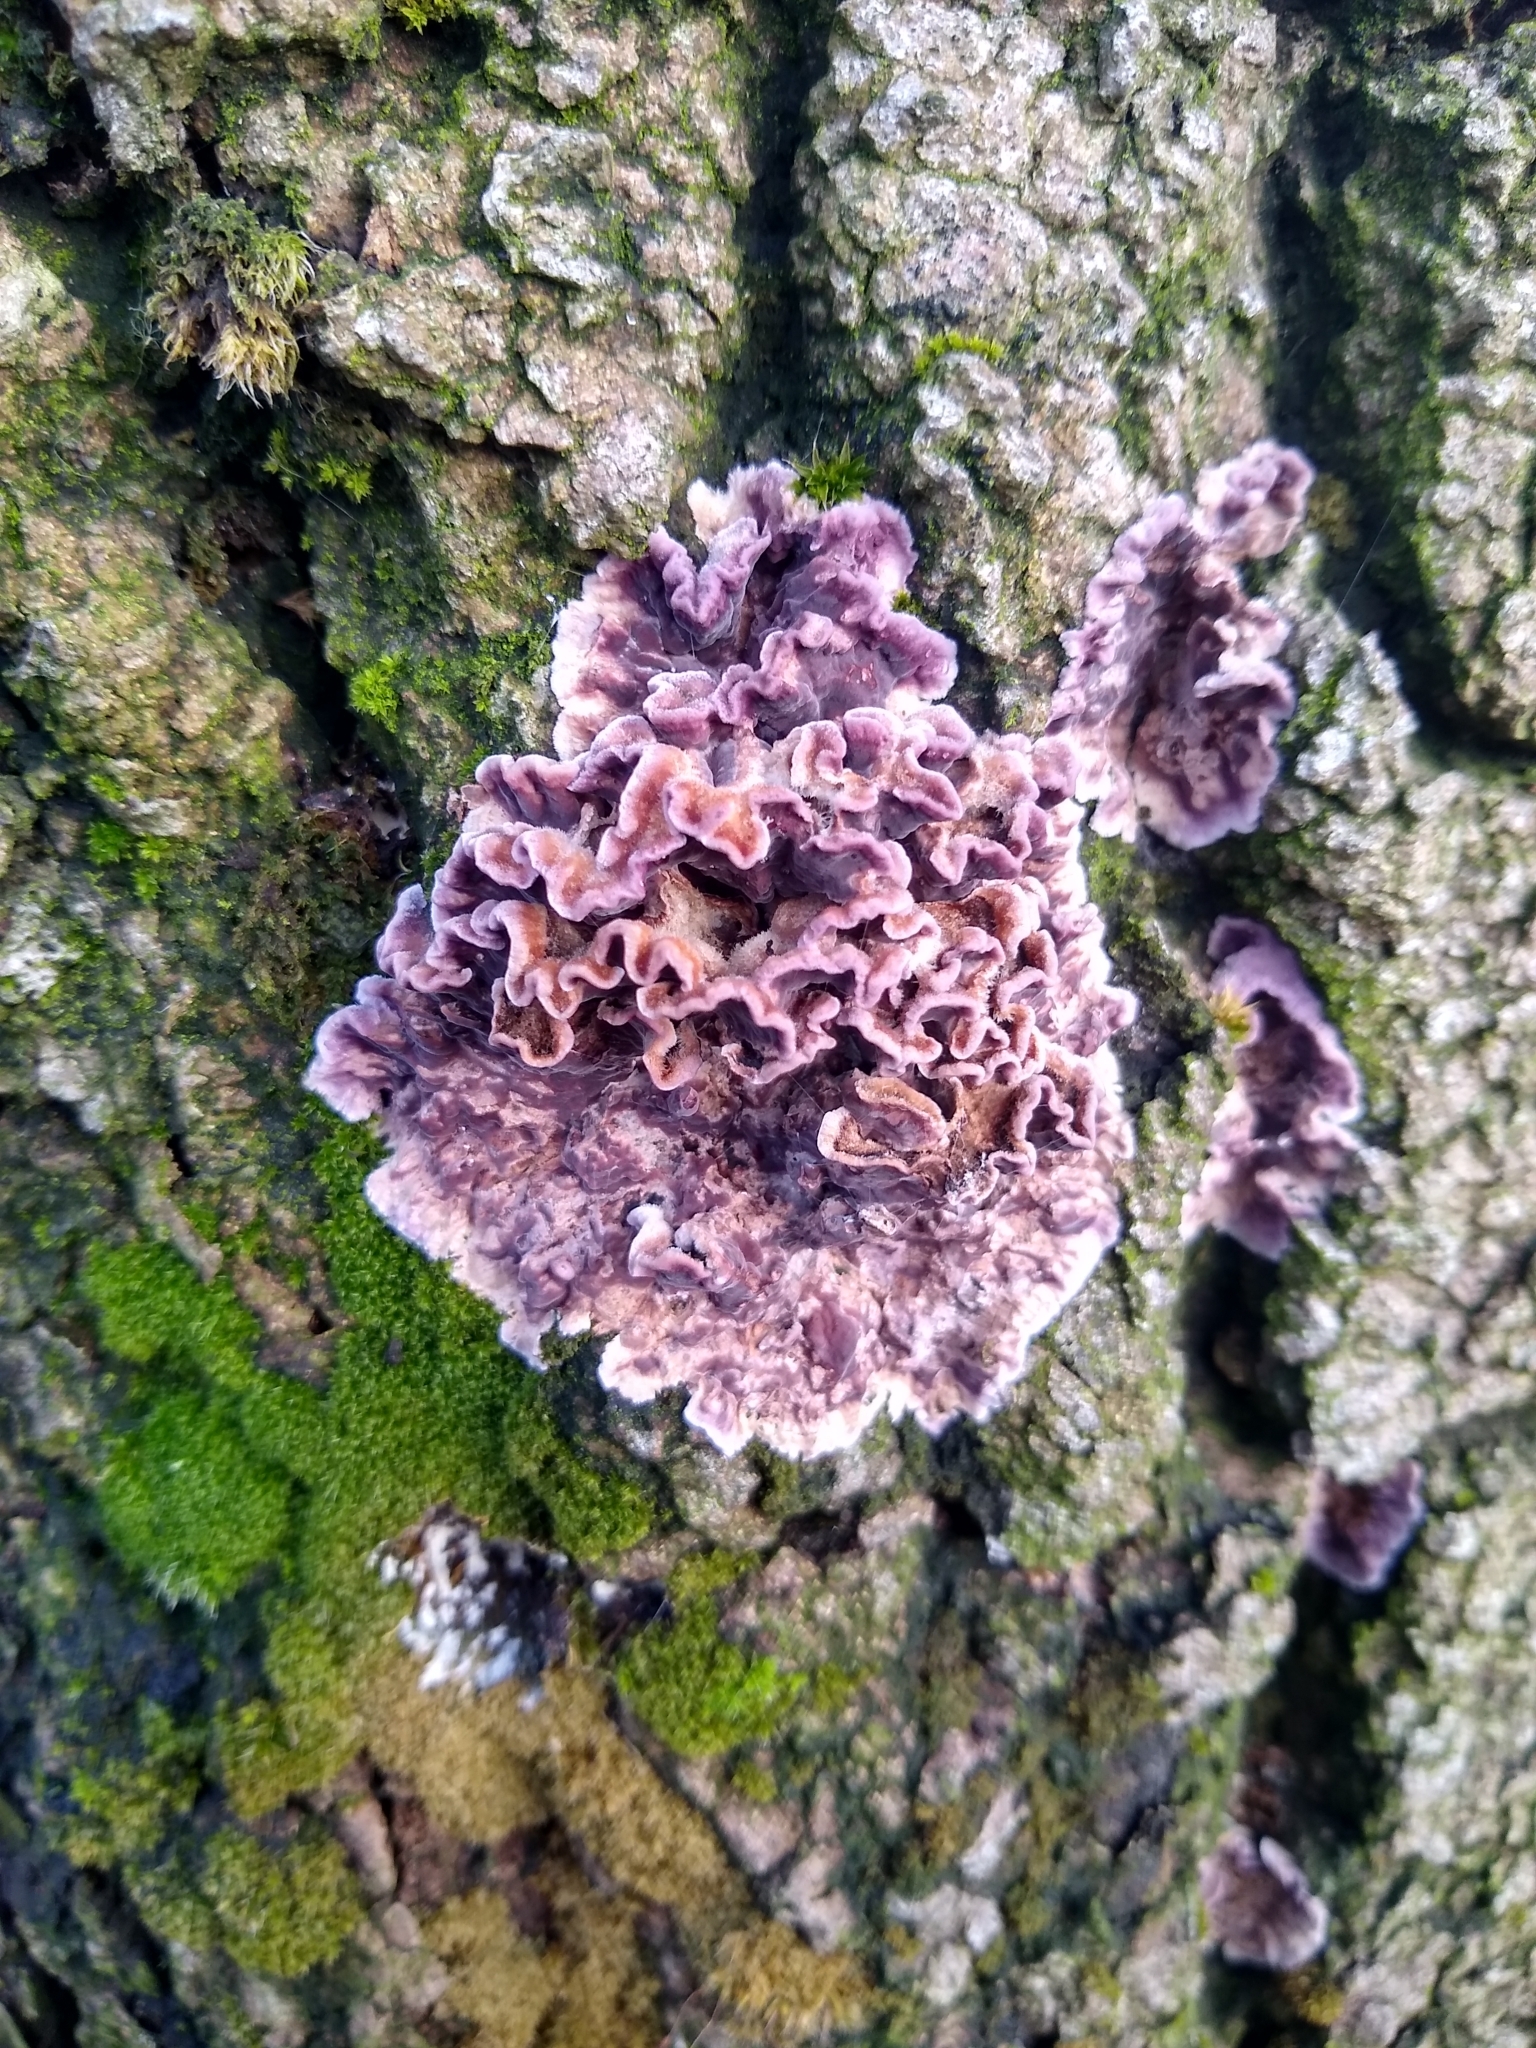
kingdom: Fungi
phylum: Basidiomycota
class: Agaricomycetes
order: Agaricales
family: Cyphellaceae
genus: Chondrostereum
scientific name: Chondrostereum purpureum
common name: Silver leaf disease
